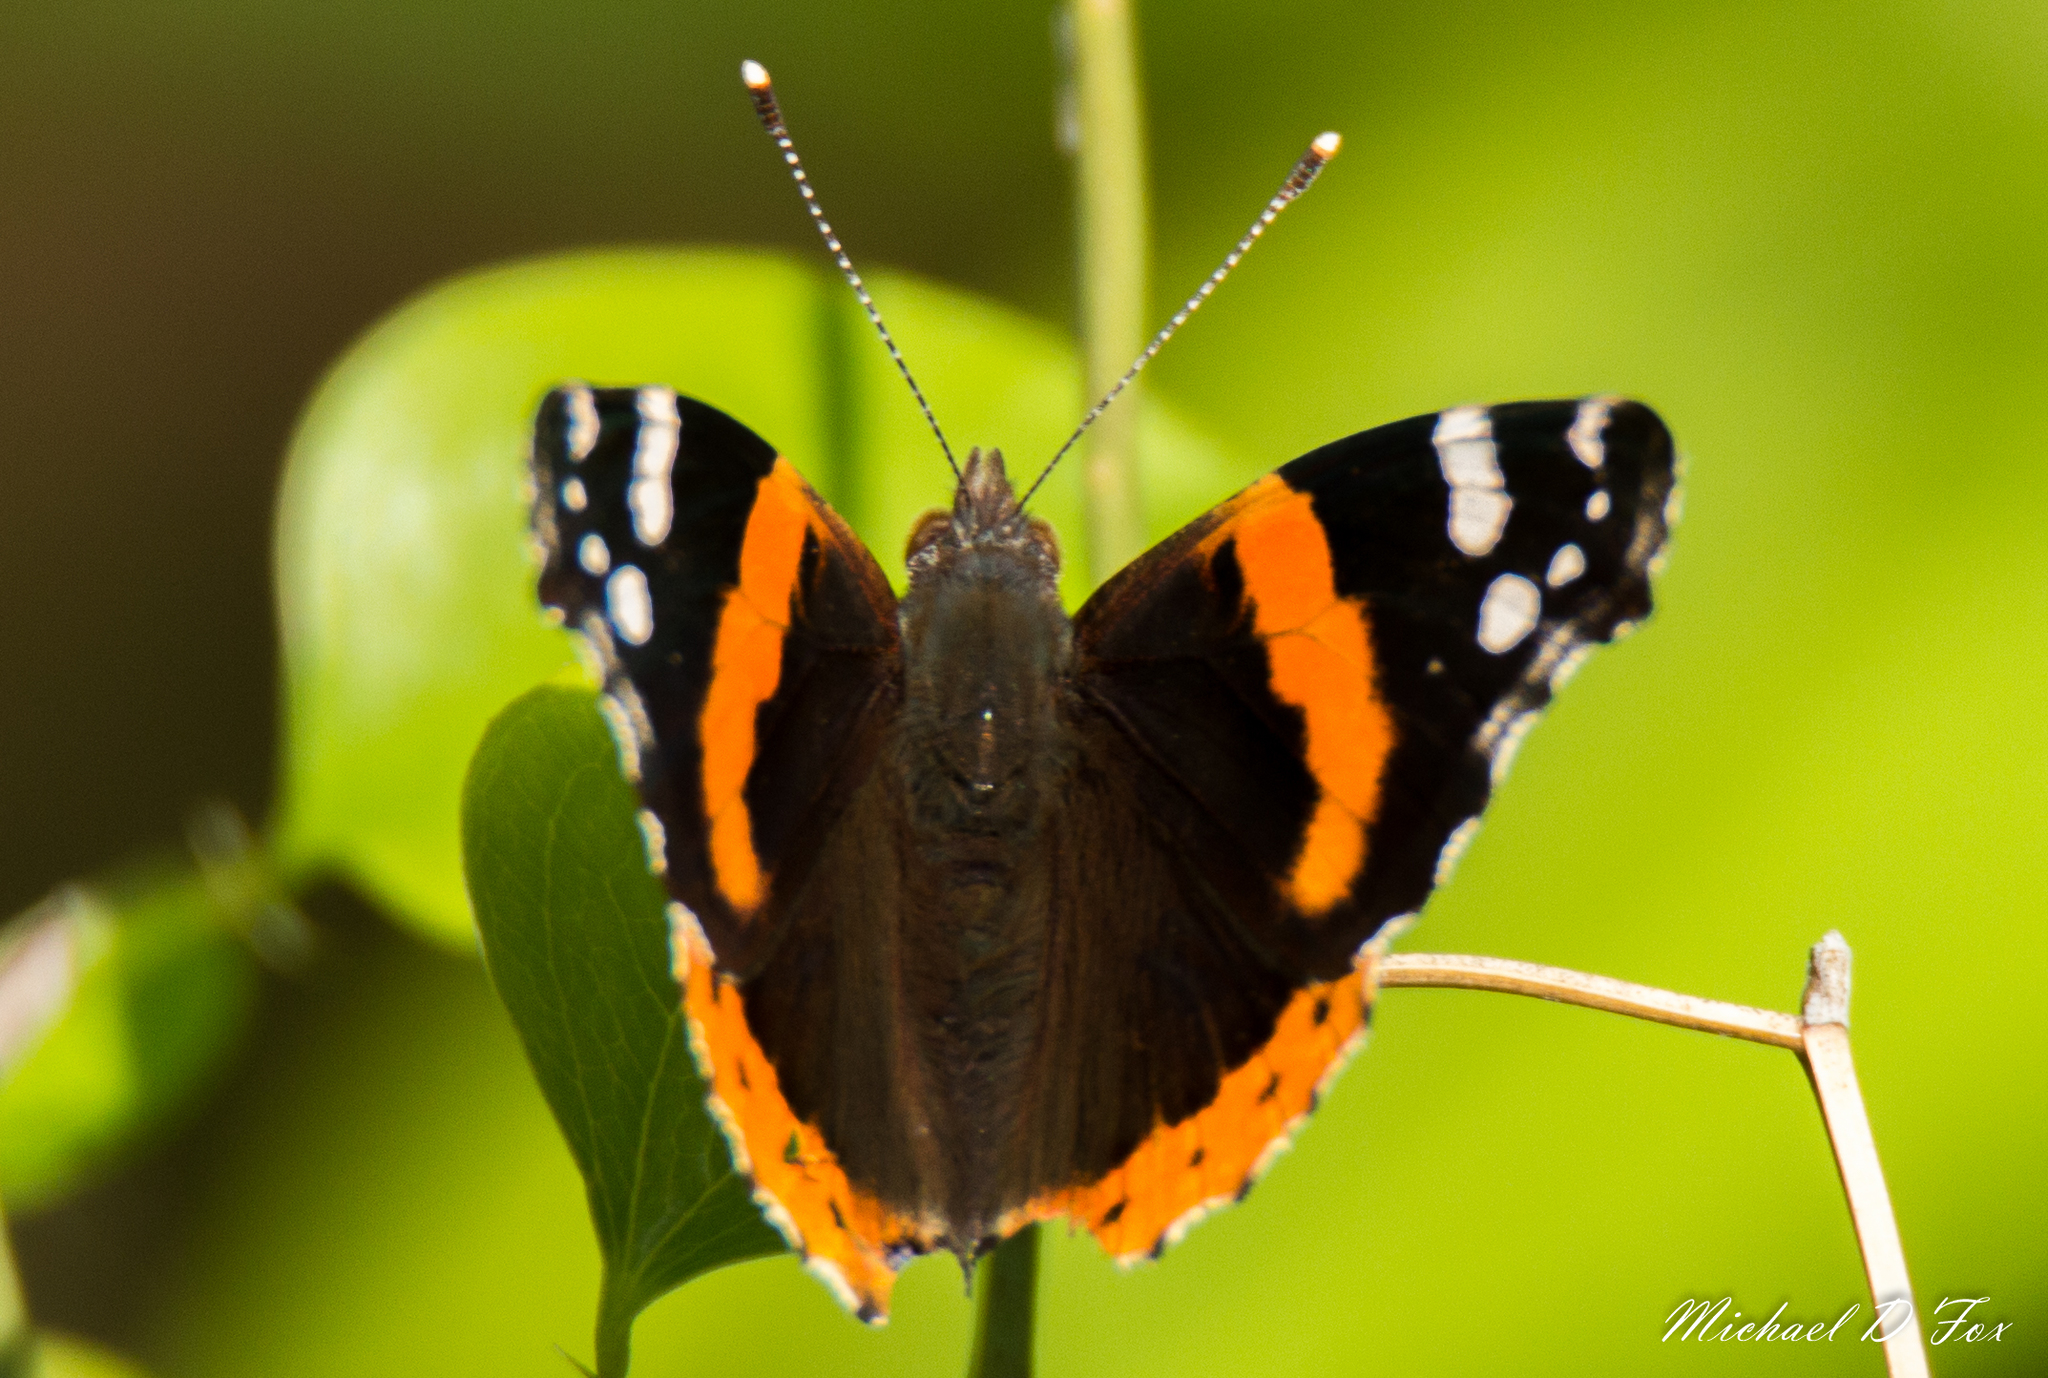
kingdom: Animalia
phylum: Arthropoda
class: Insecta
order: Lepidoptera
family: Nymphalidae
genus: Vanessa
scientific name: Vanessa atalanta
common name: Red admiral
